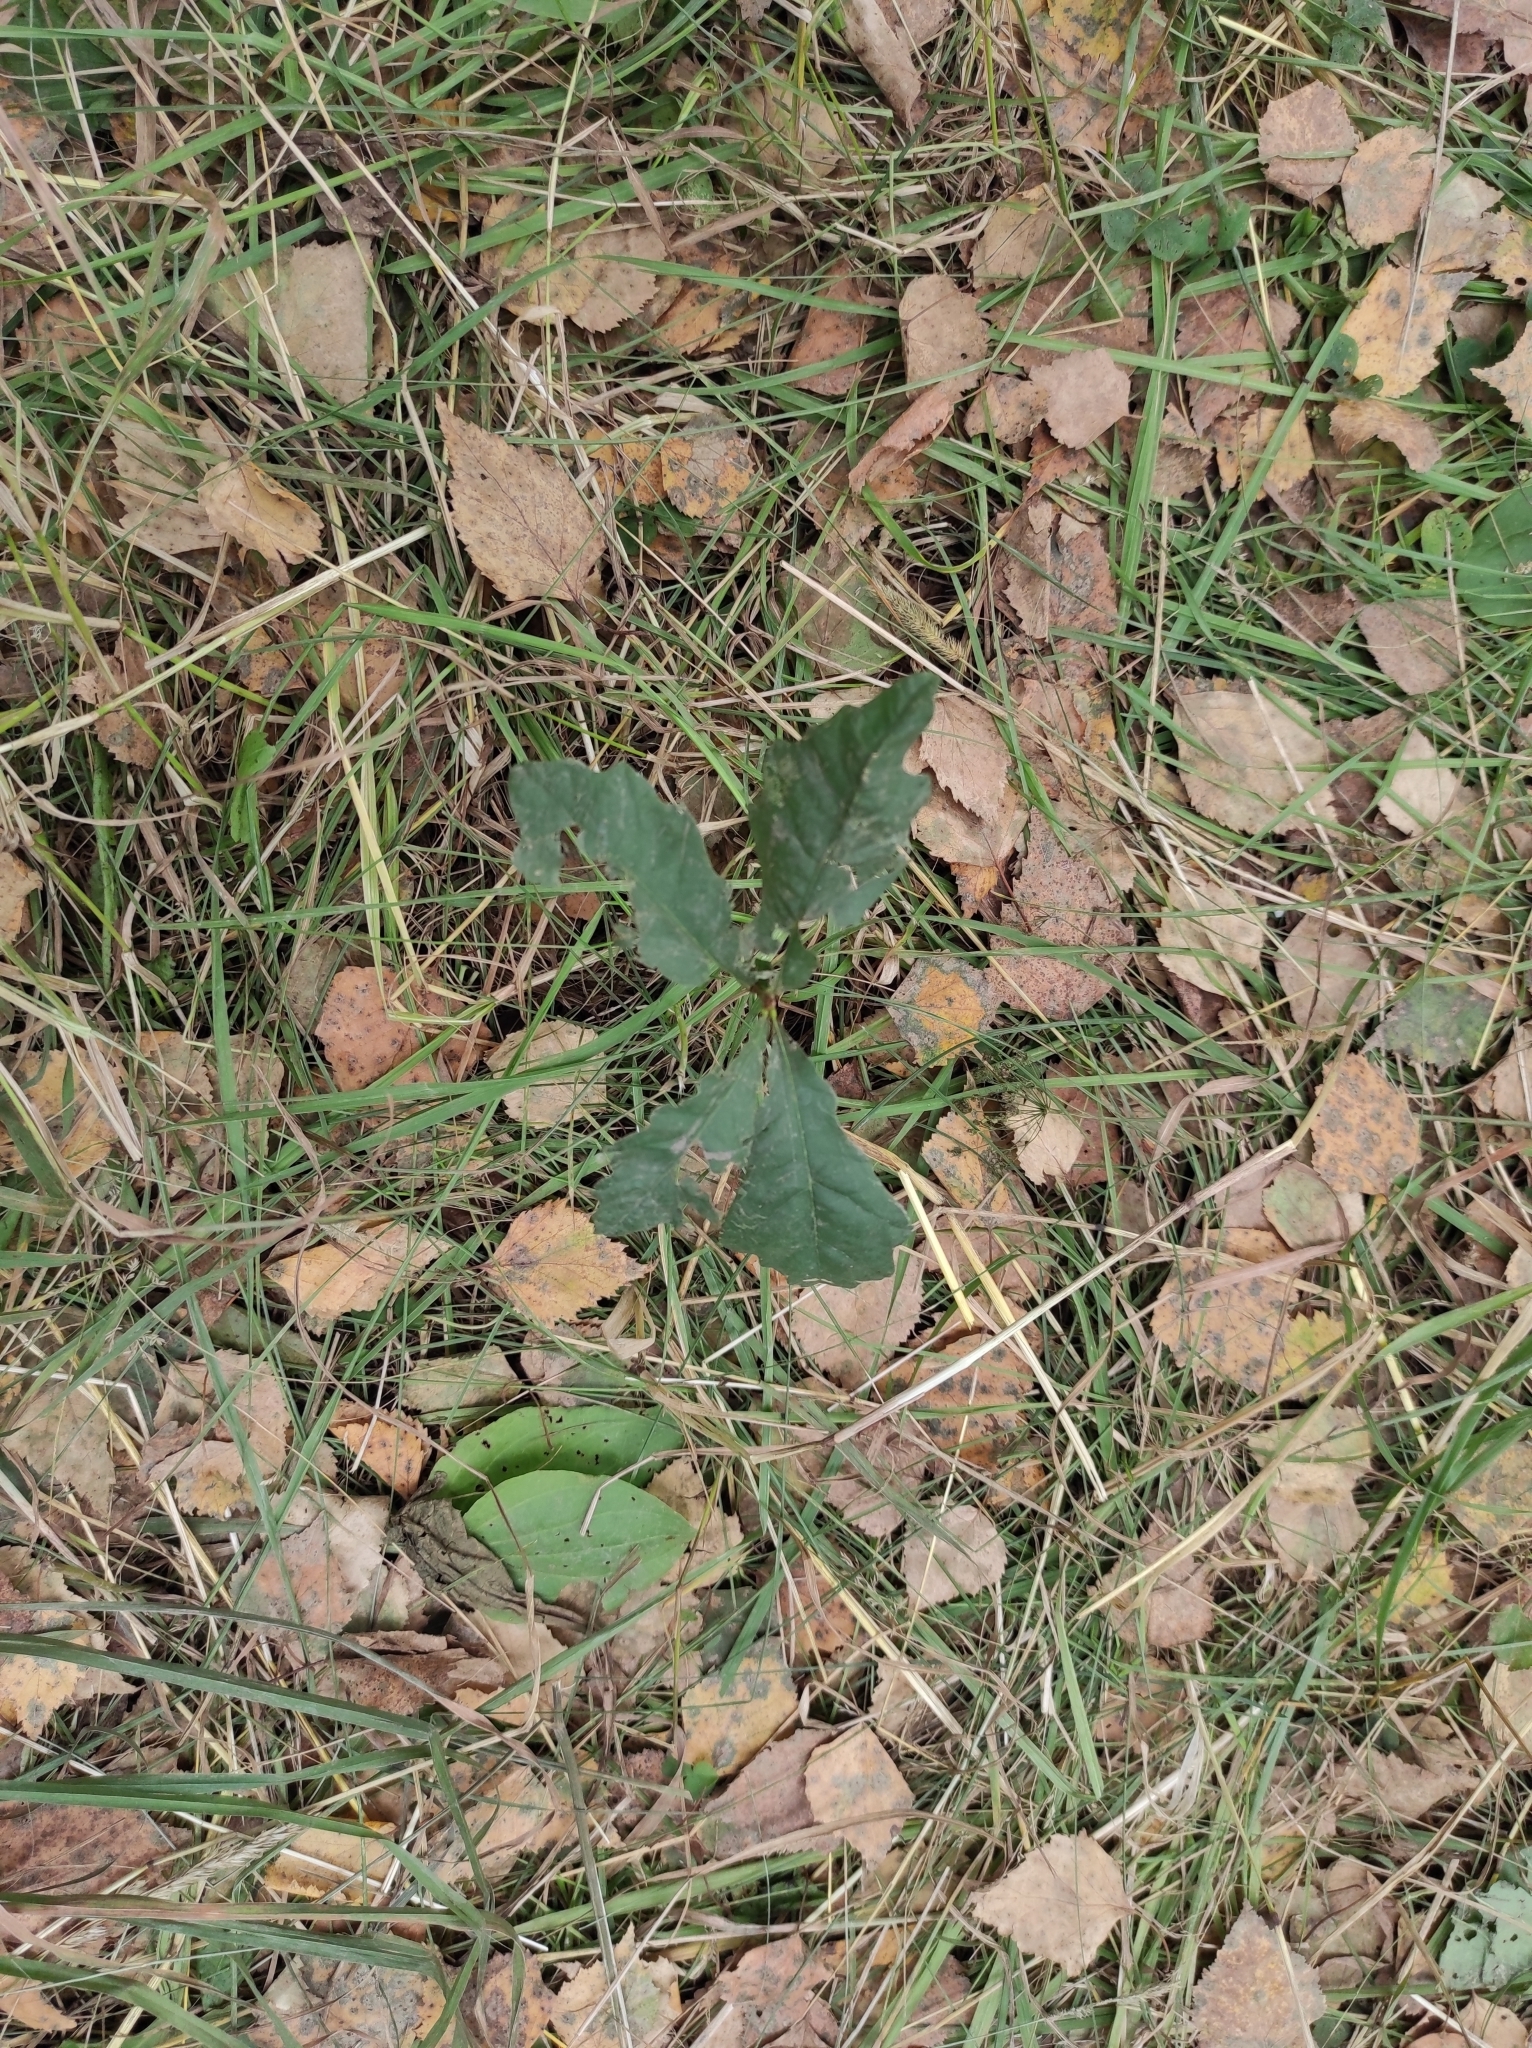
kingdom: Plantae
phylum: Tracheophyta
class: Magnoliopsida
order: Fagales
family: Fagaceae
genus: Quercus
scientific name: Quercus robur
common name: Pedunculate oak
